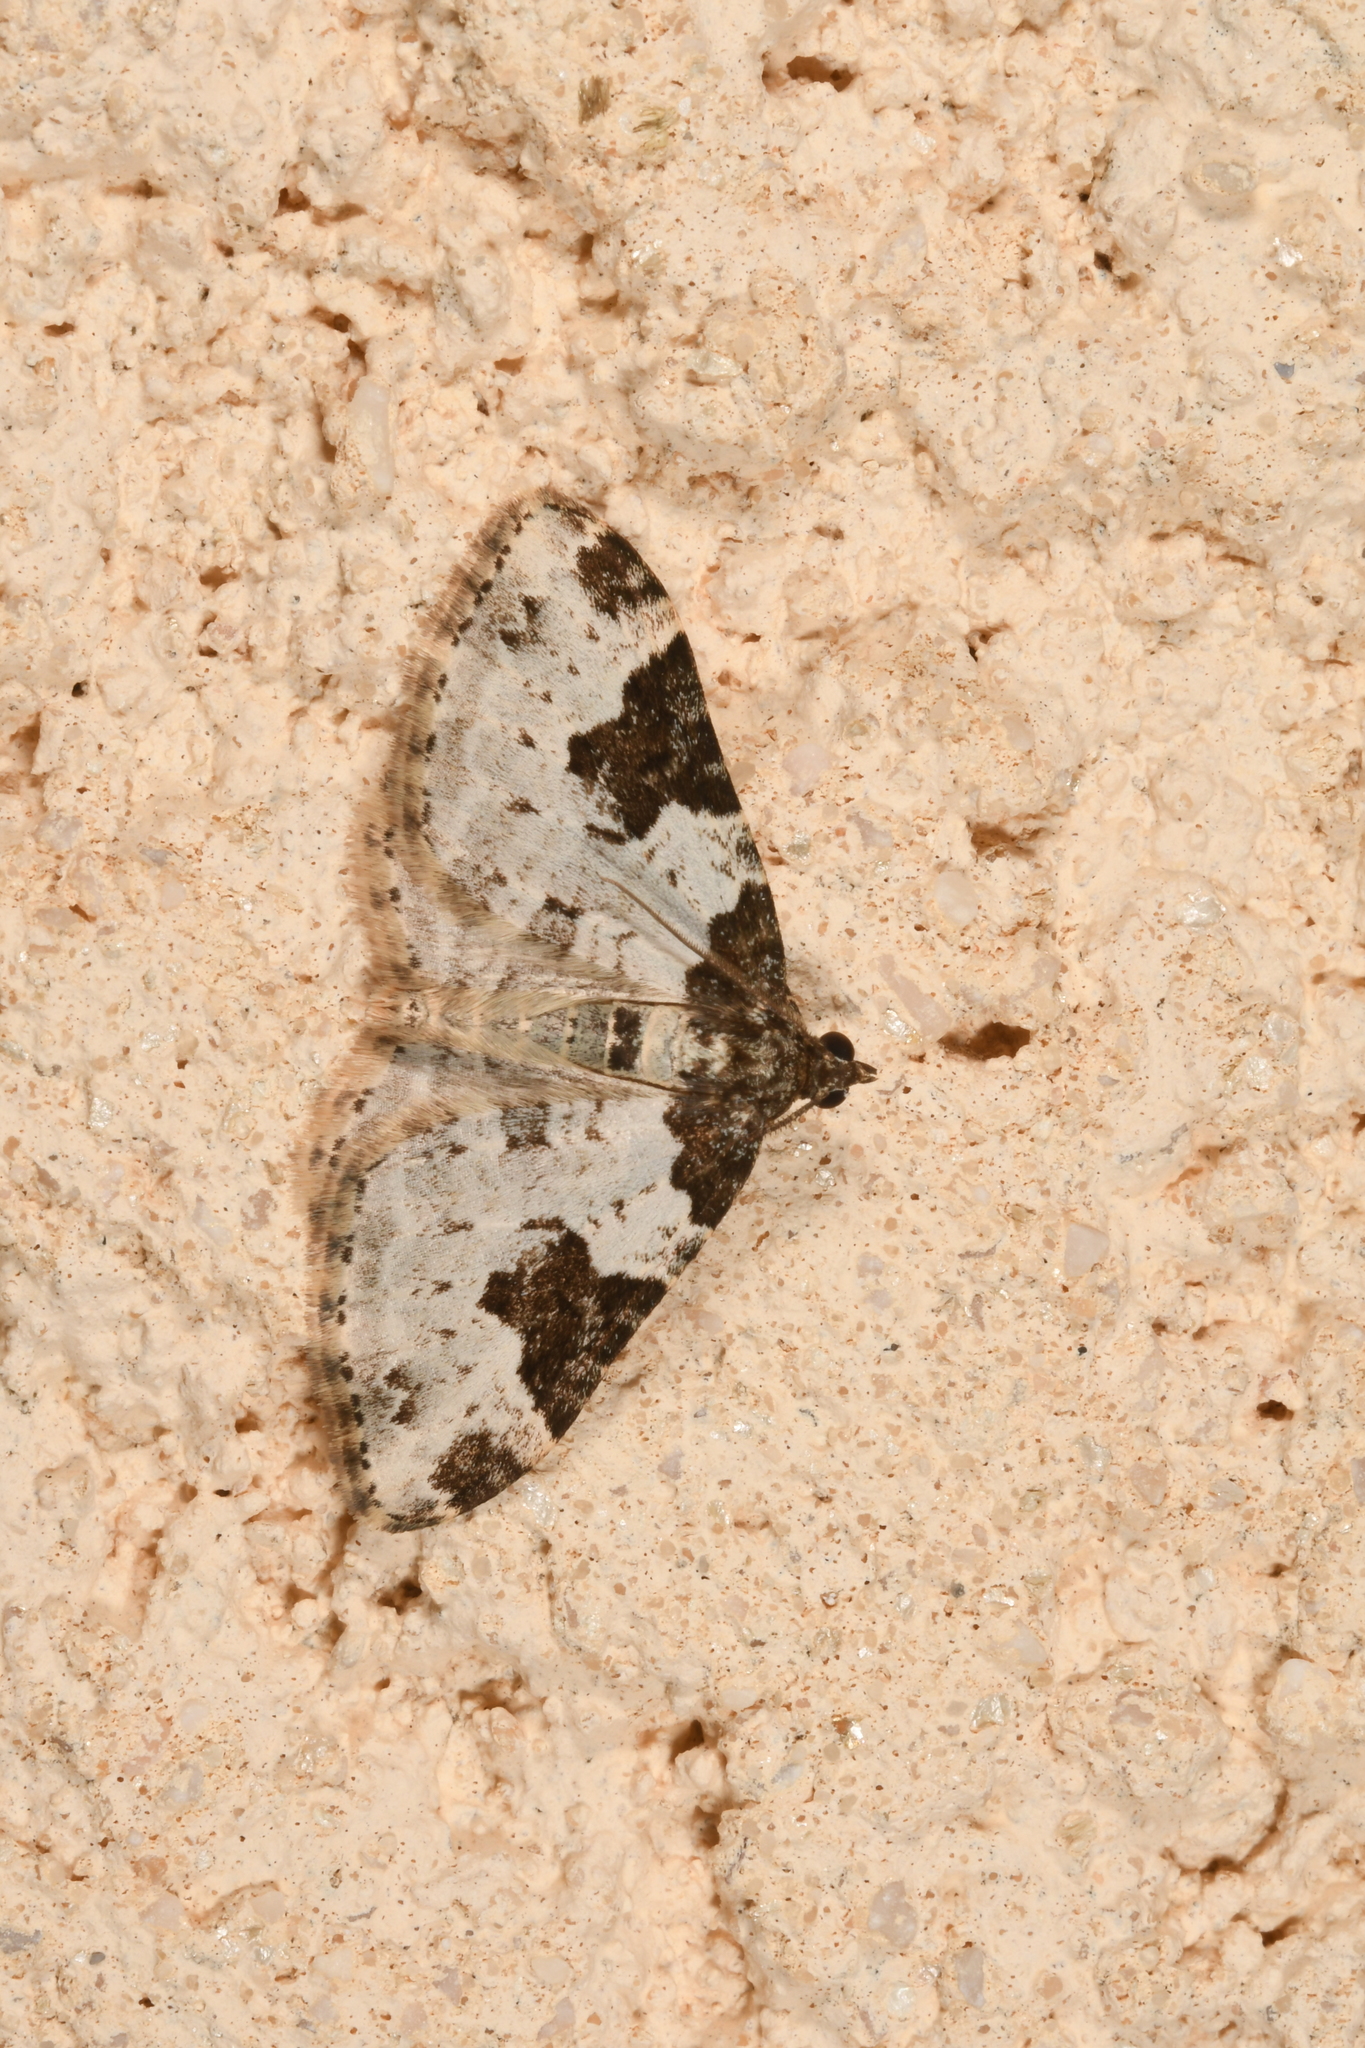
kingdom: Animalia
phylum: Arthropoda
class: Insecta
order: Lepidoptera
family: Geometridae
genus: Xanthorhoe
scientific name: Xanthorhoe fluctuata
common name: Garden carpet
